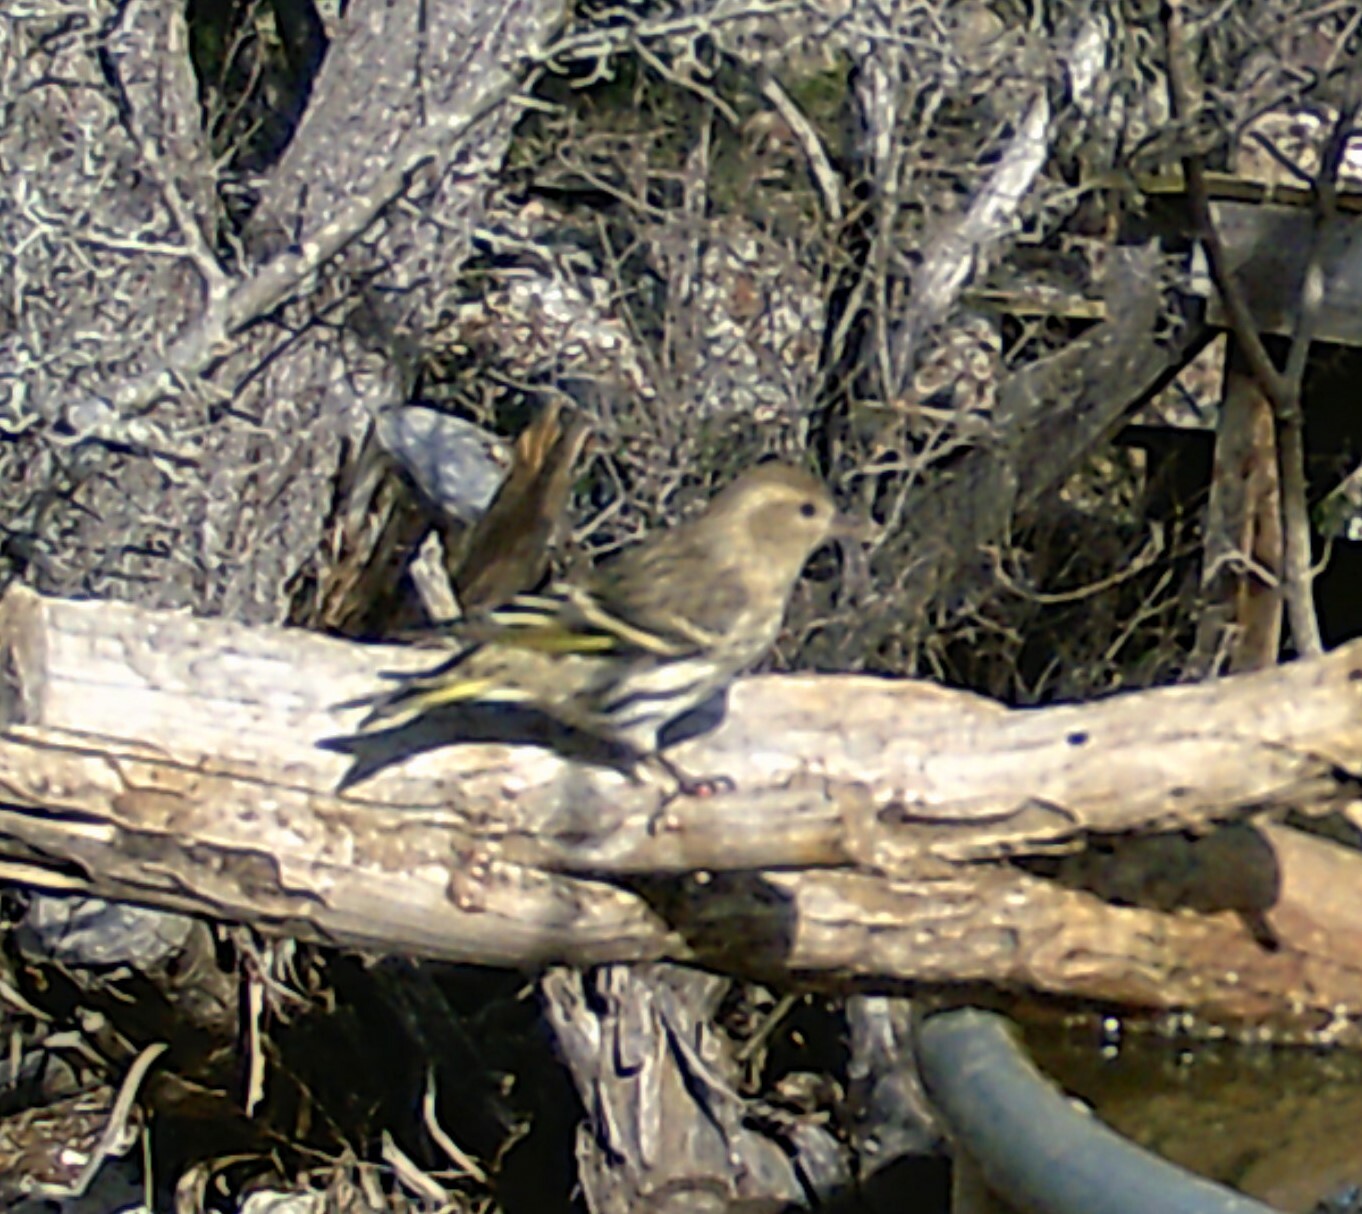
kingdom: Animalia
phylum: Chordata
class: Aves
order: Passeriformes
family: Fringillidae
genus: Spinus
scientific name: Spinus pinus
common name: Pine siskin
